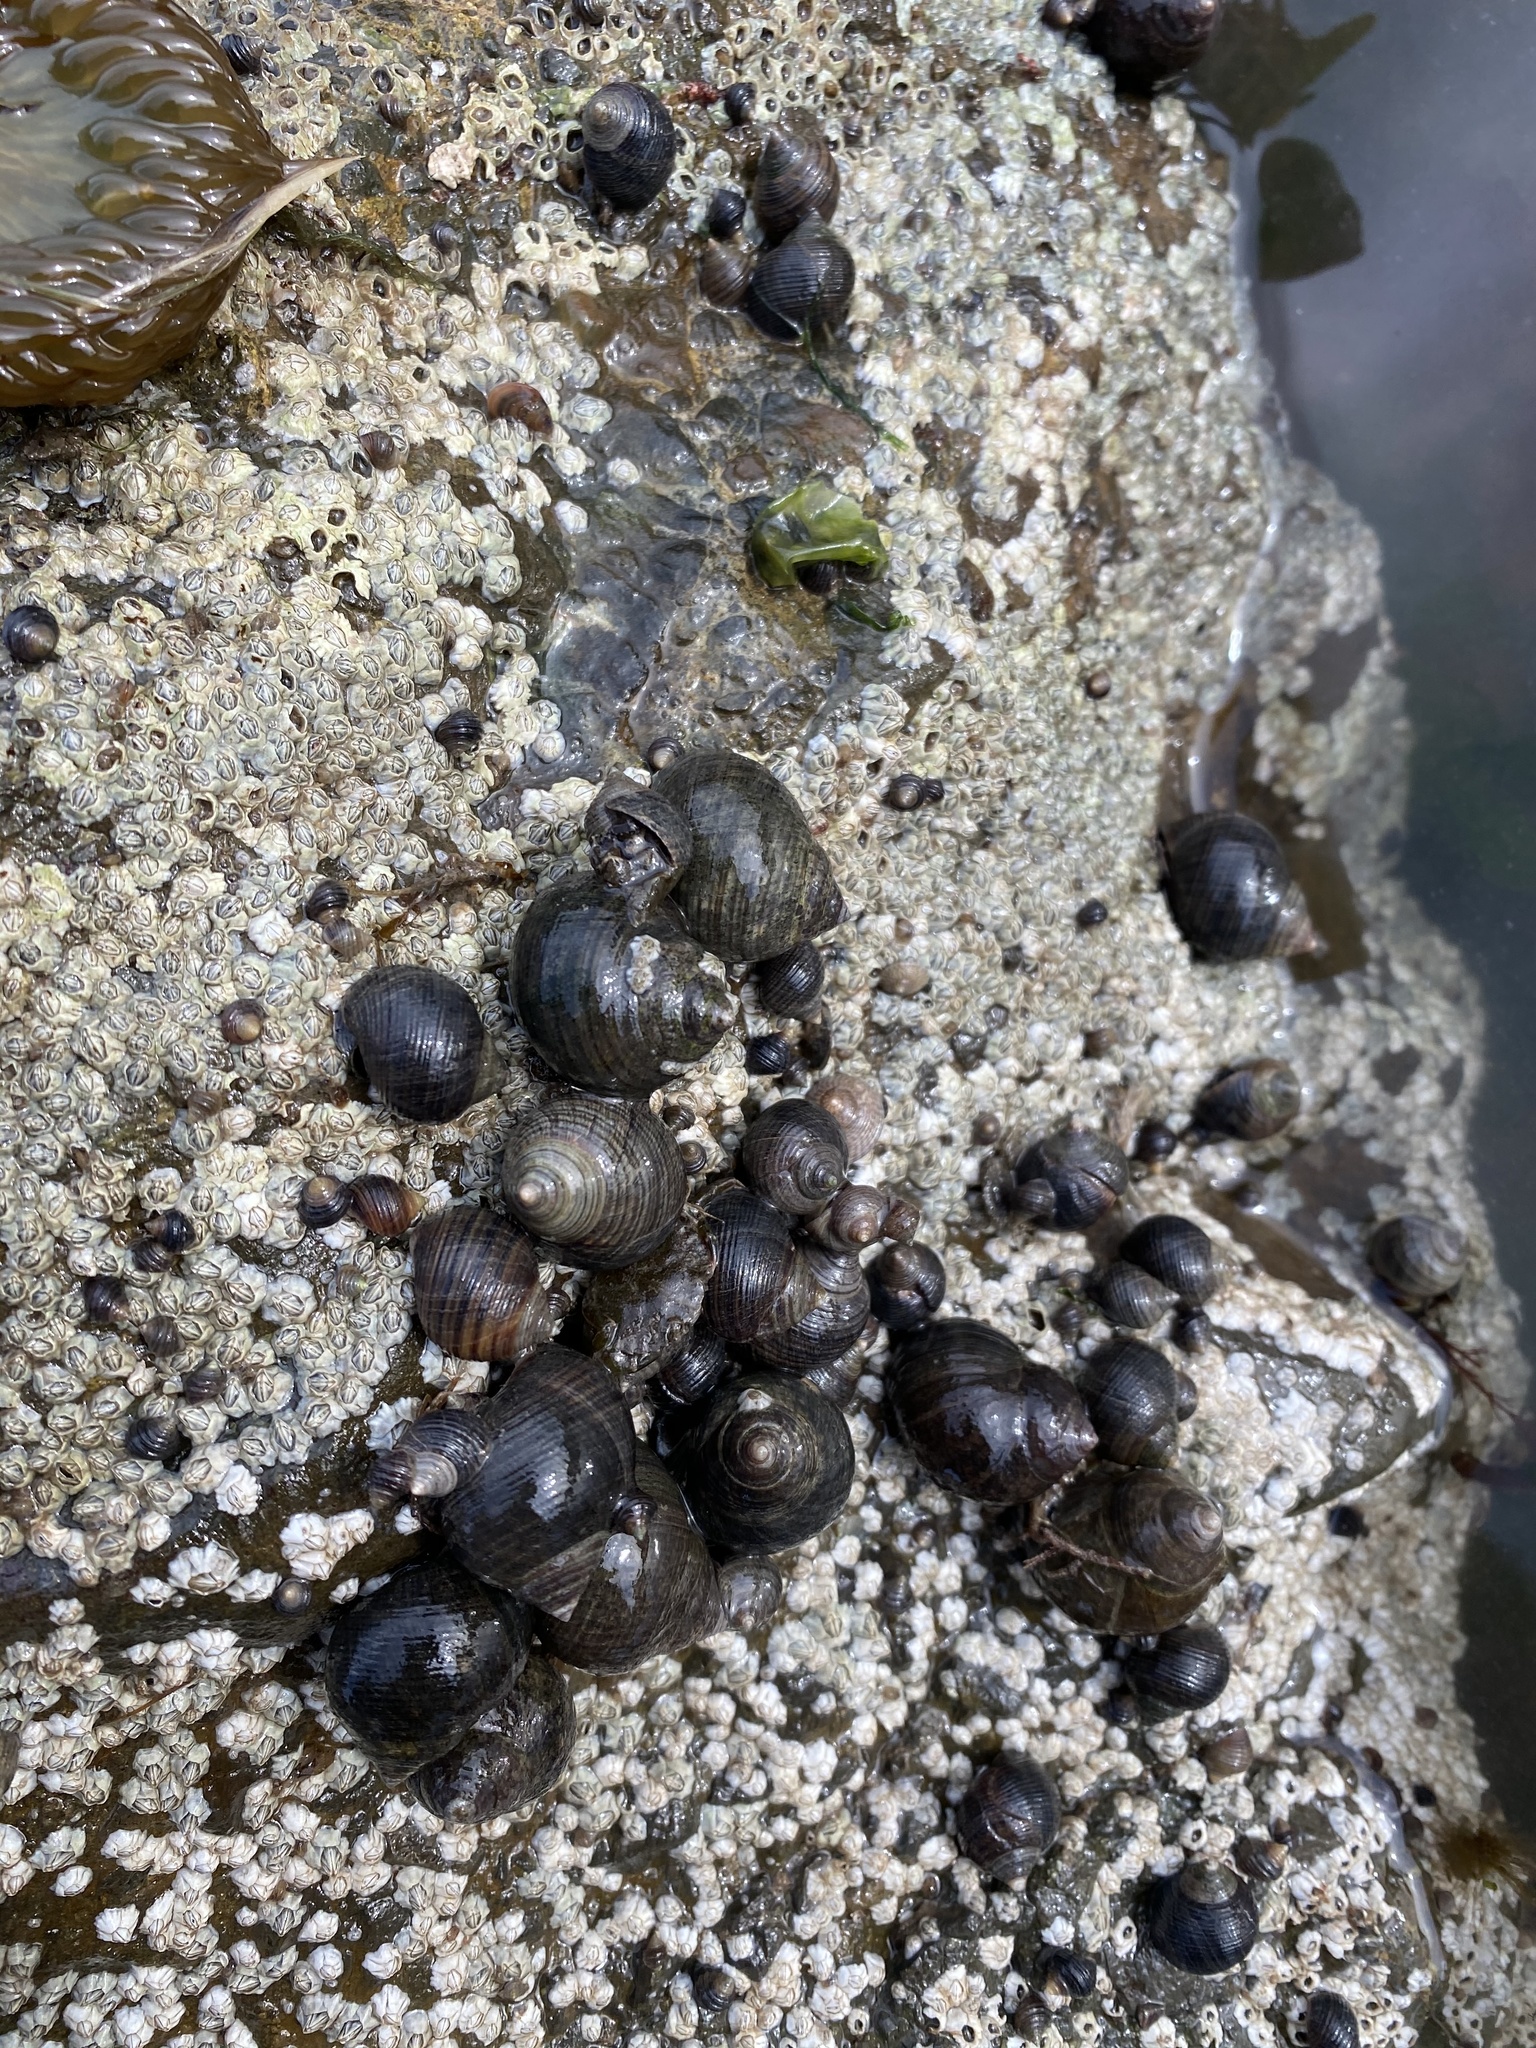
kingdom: Animalia
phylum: Mollusca
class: Gastropoda
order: Littorinimorpha
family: Littorinidae
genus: Littorina
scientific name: Littorina littorea
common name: Common periwinkle
